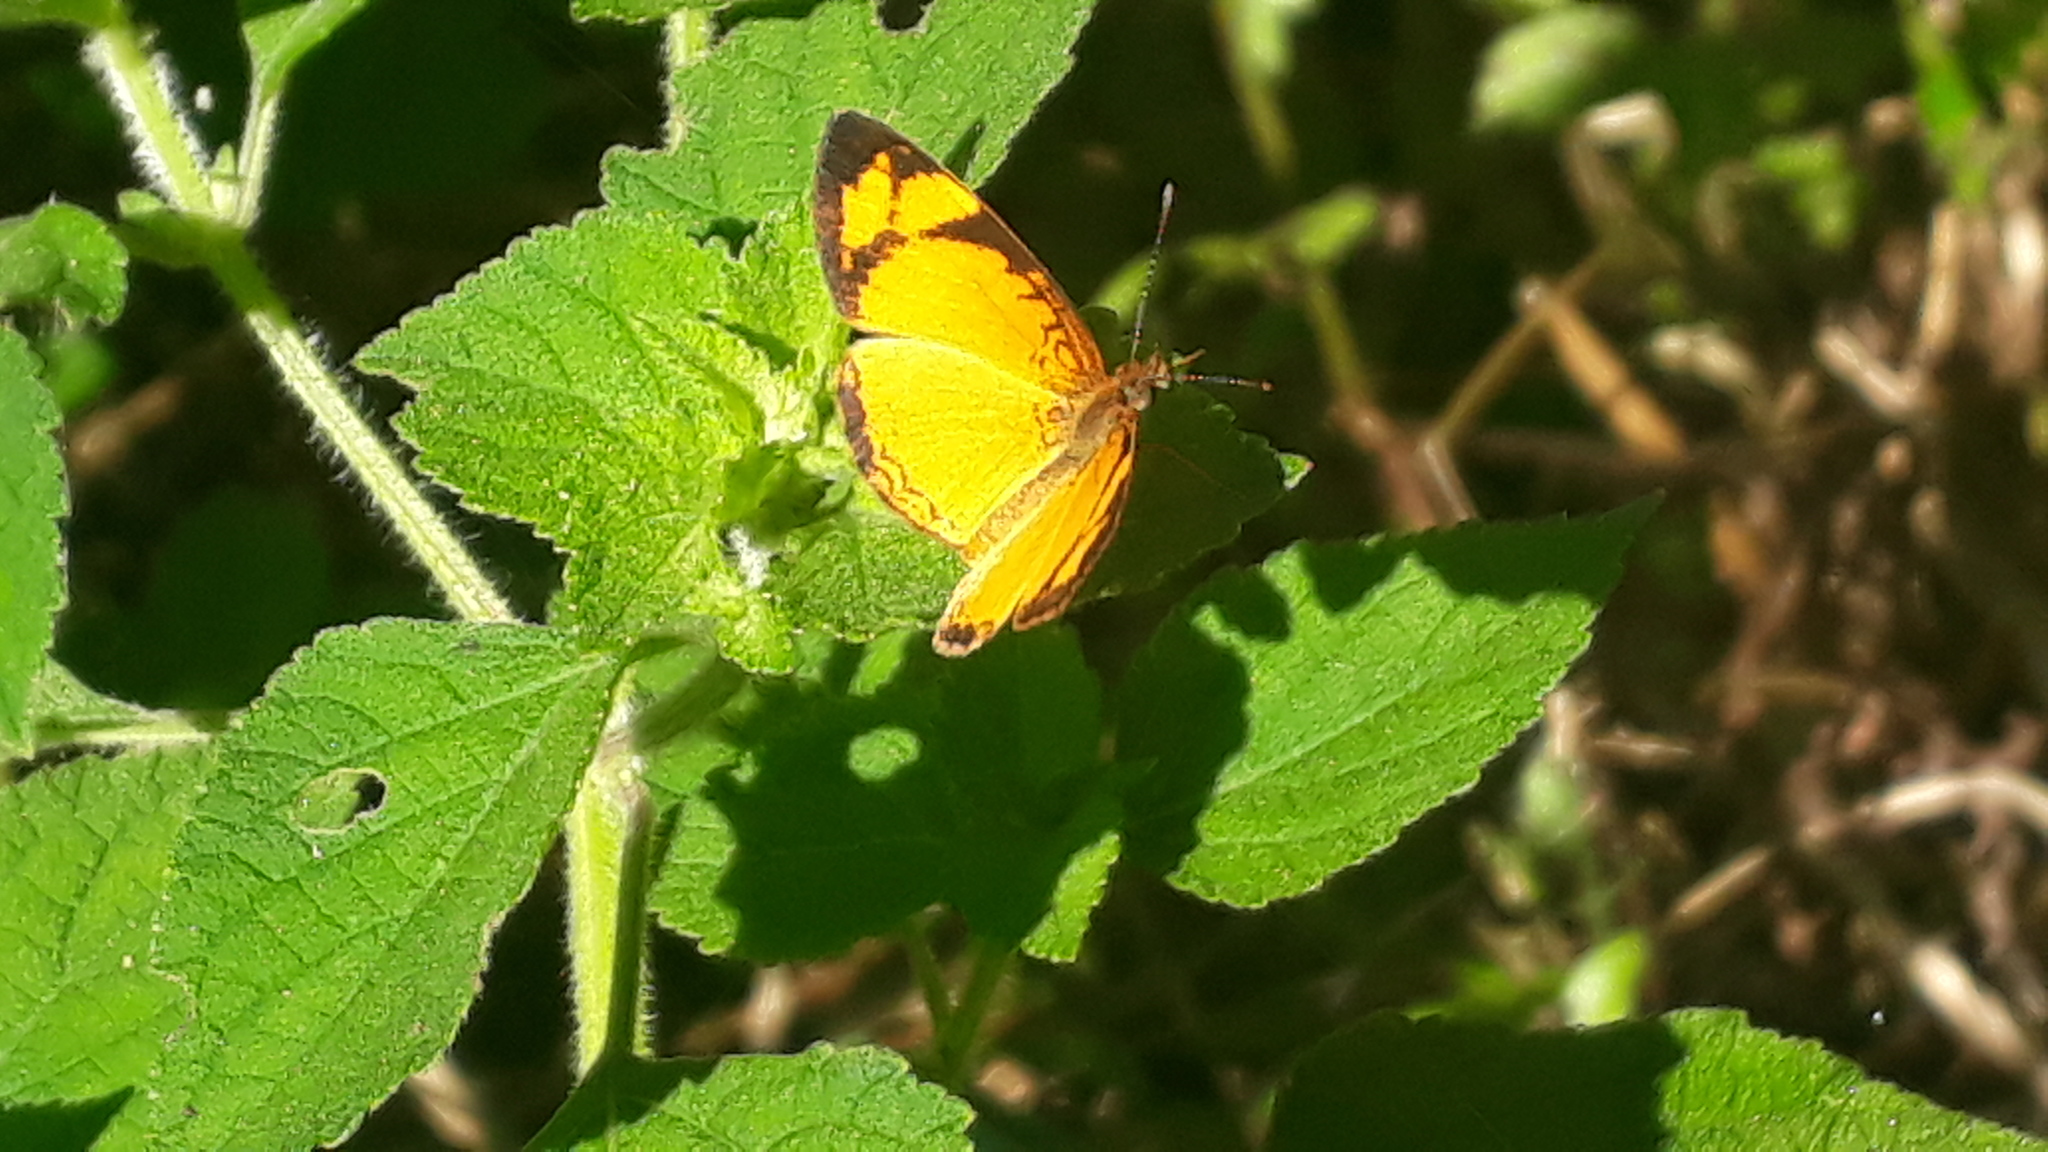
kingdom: Animalia
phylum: Arthropoda
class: Insecta
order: Lepidoptera
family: Nymphalidae
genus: Tegosa
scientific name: Tegosa claudina
